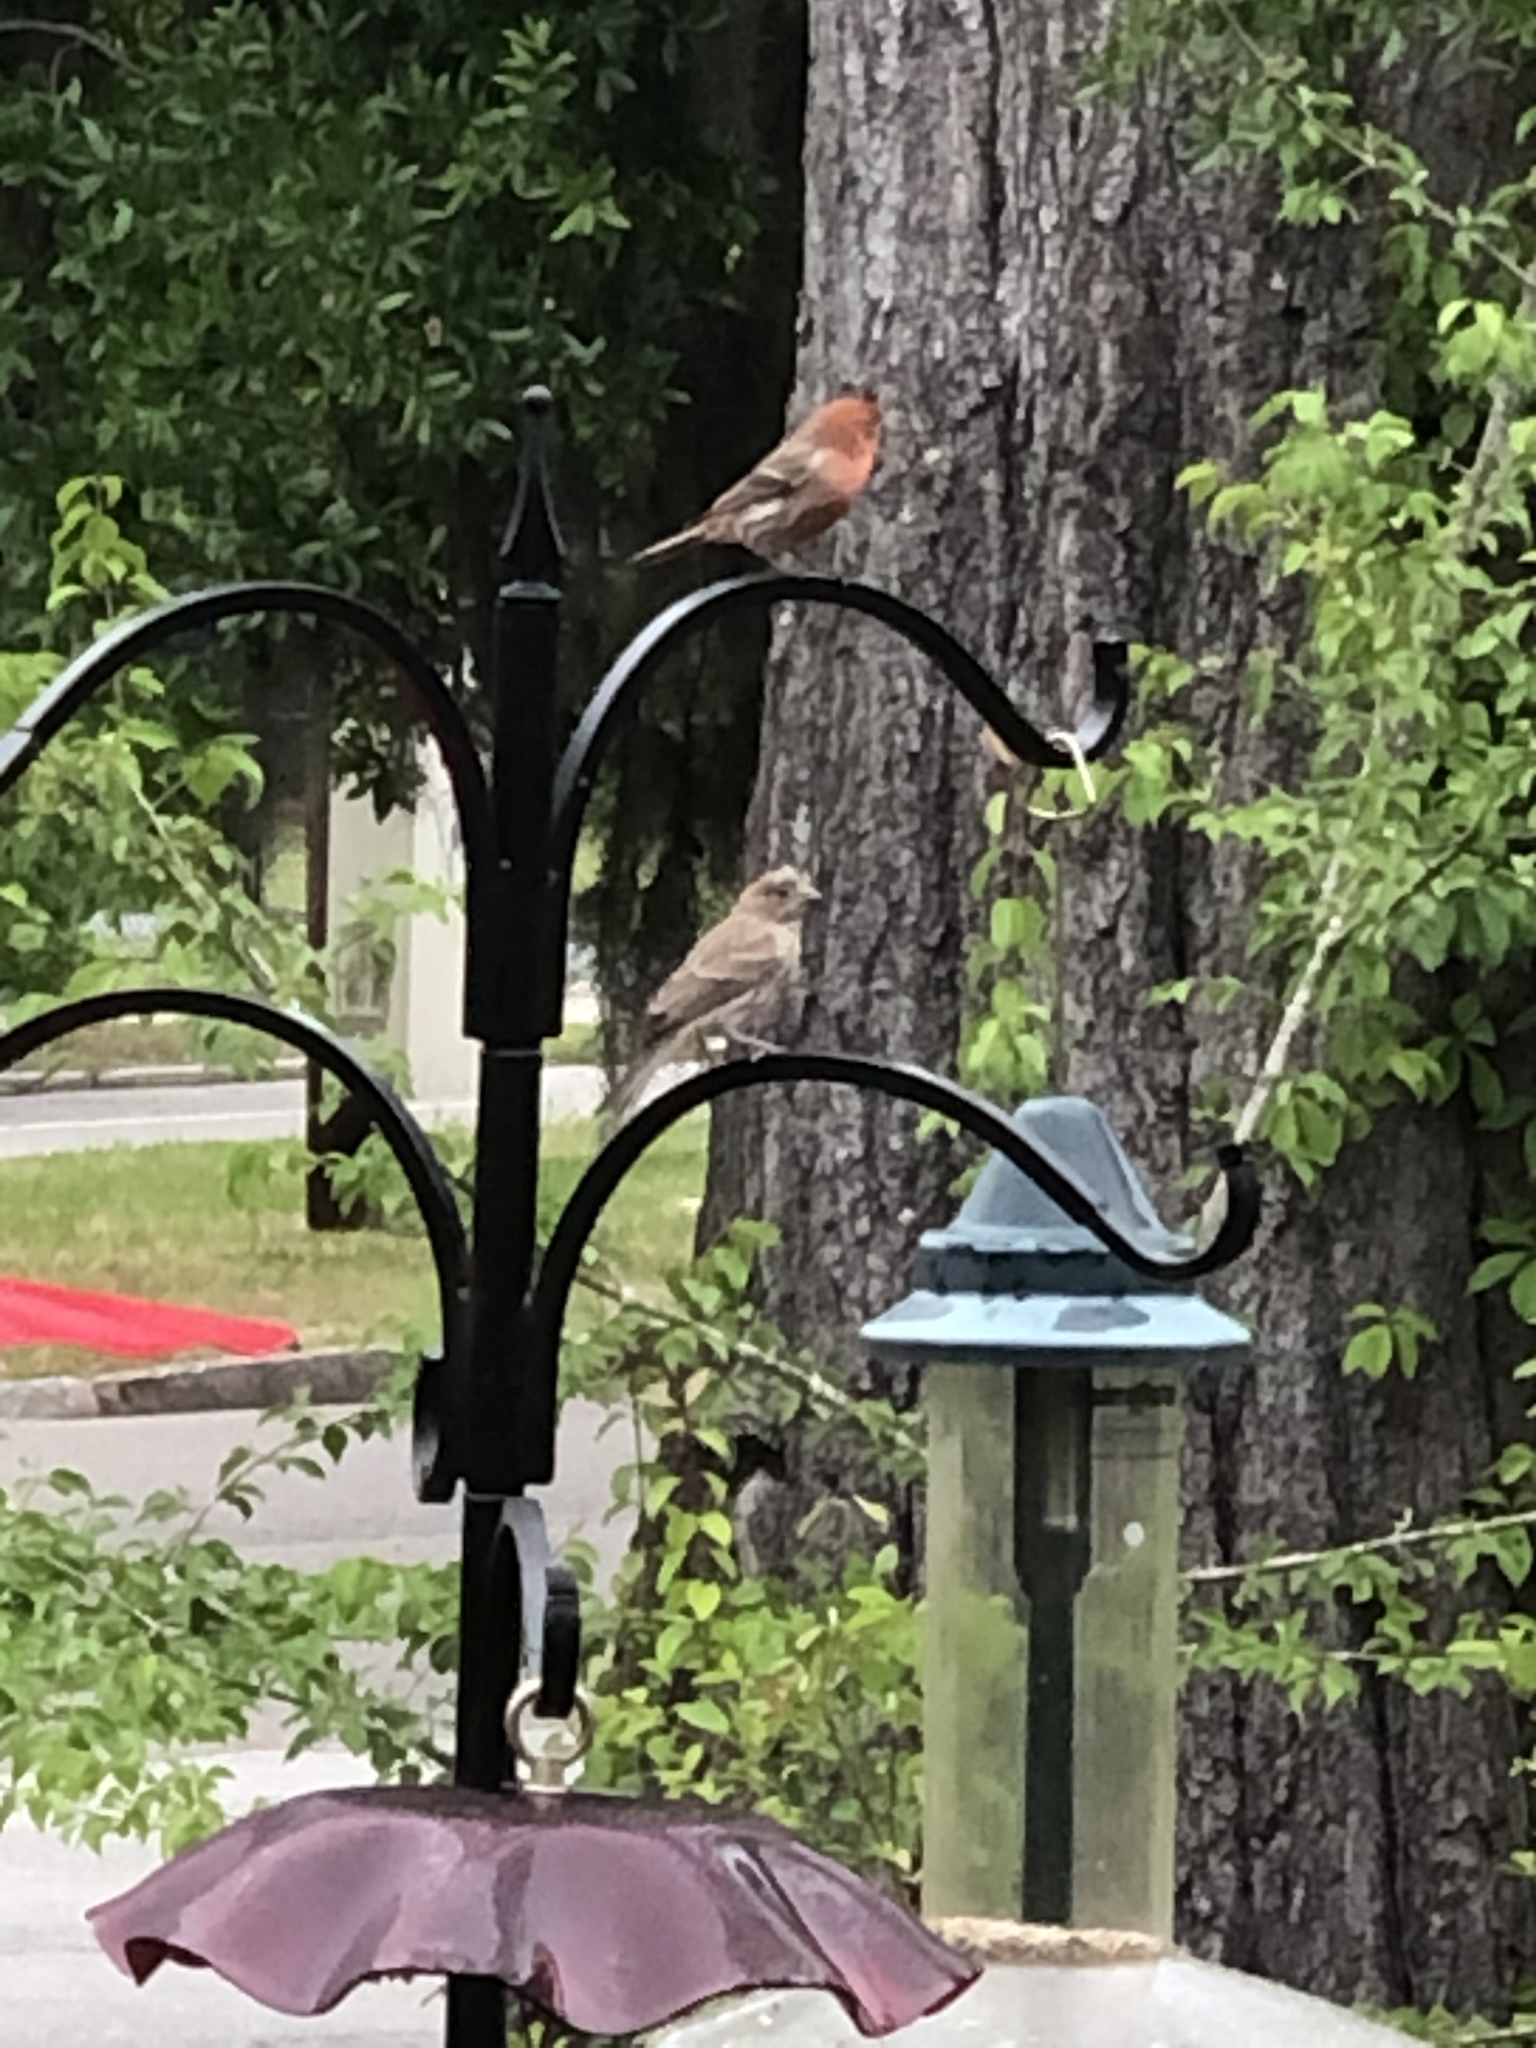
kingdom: Animalia
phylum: Chordata
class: Aves
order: Passeriformes
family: Fringillidae
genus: Haemorhous
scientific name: Haemorhous mexicanus
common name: House finch
